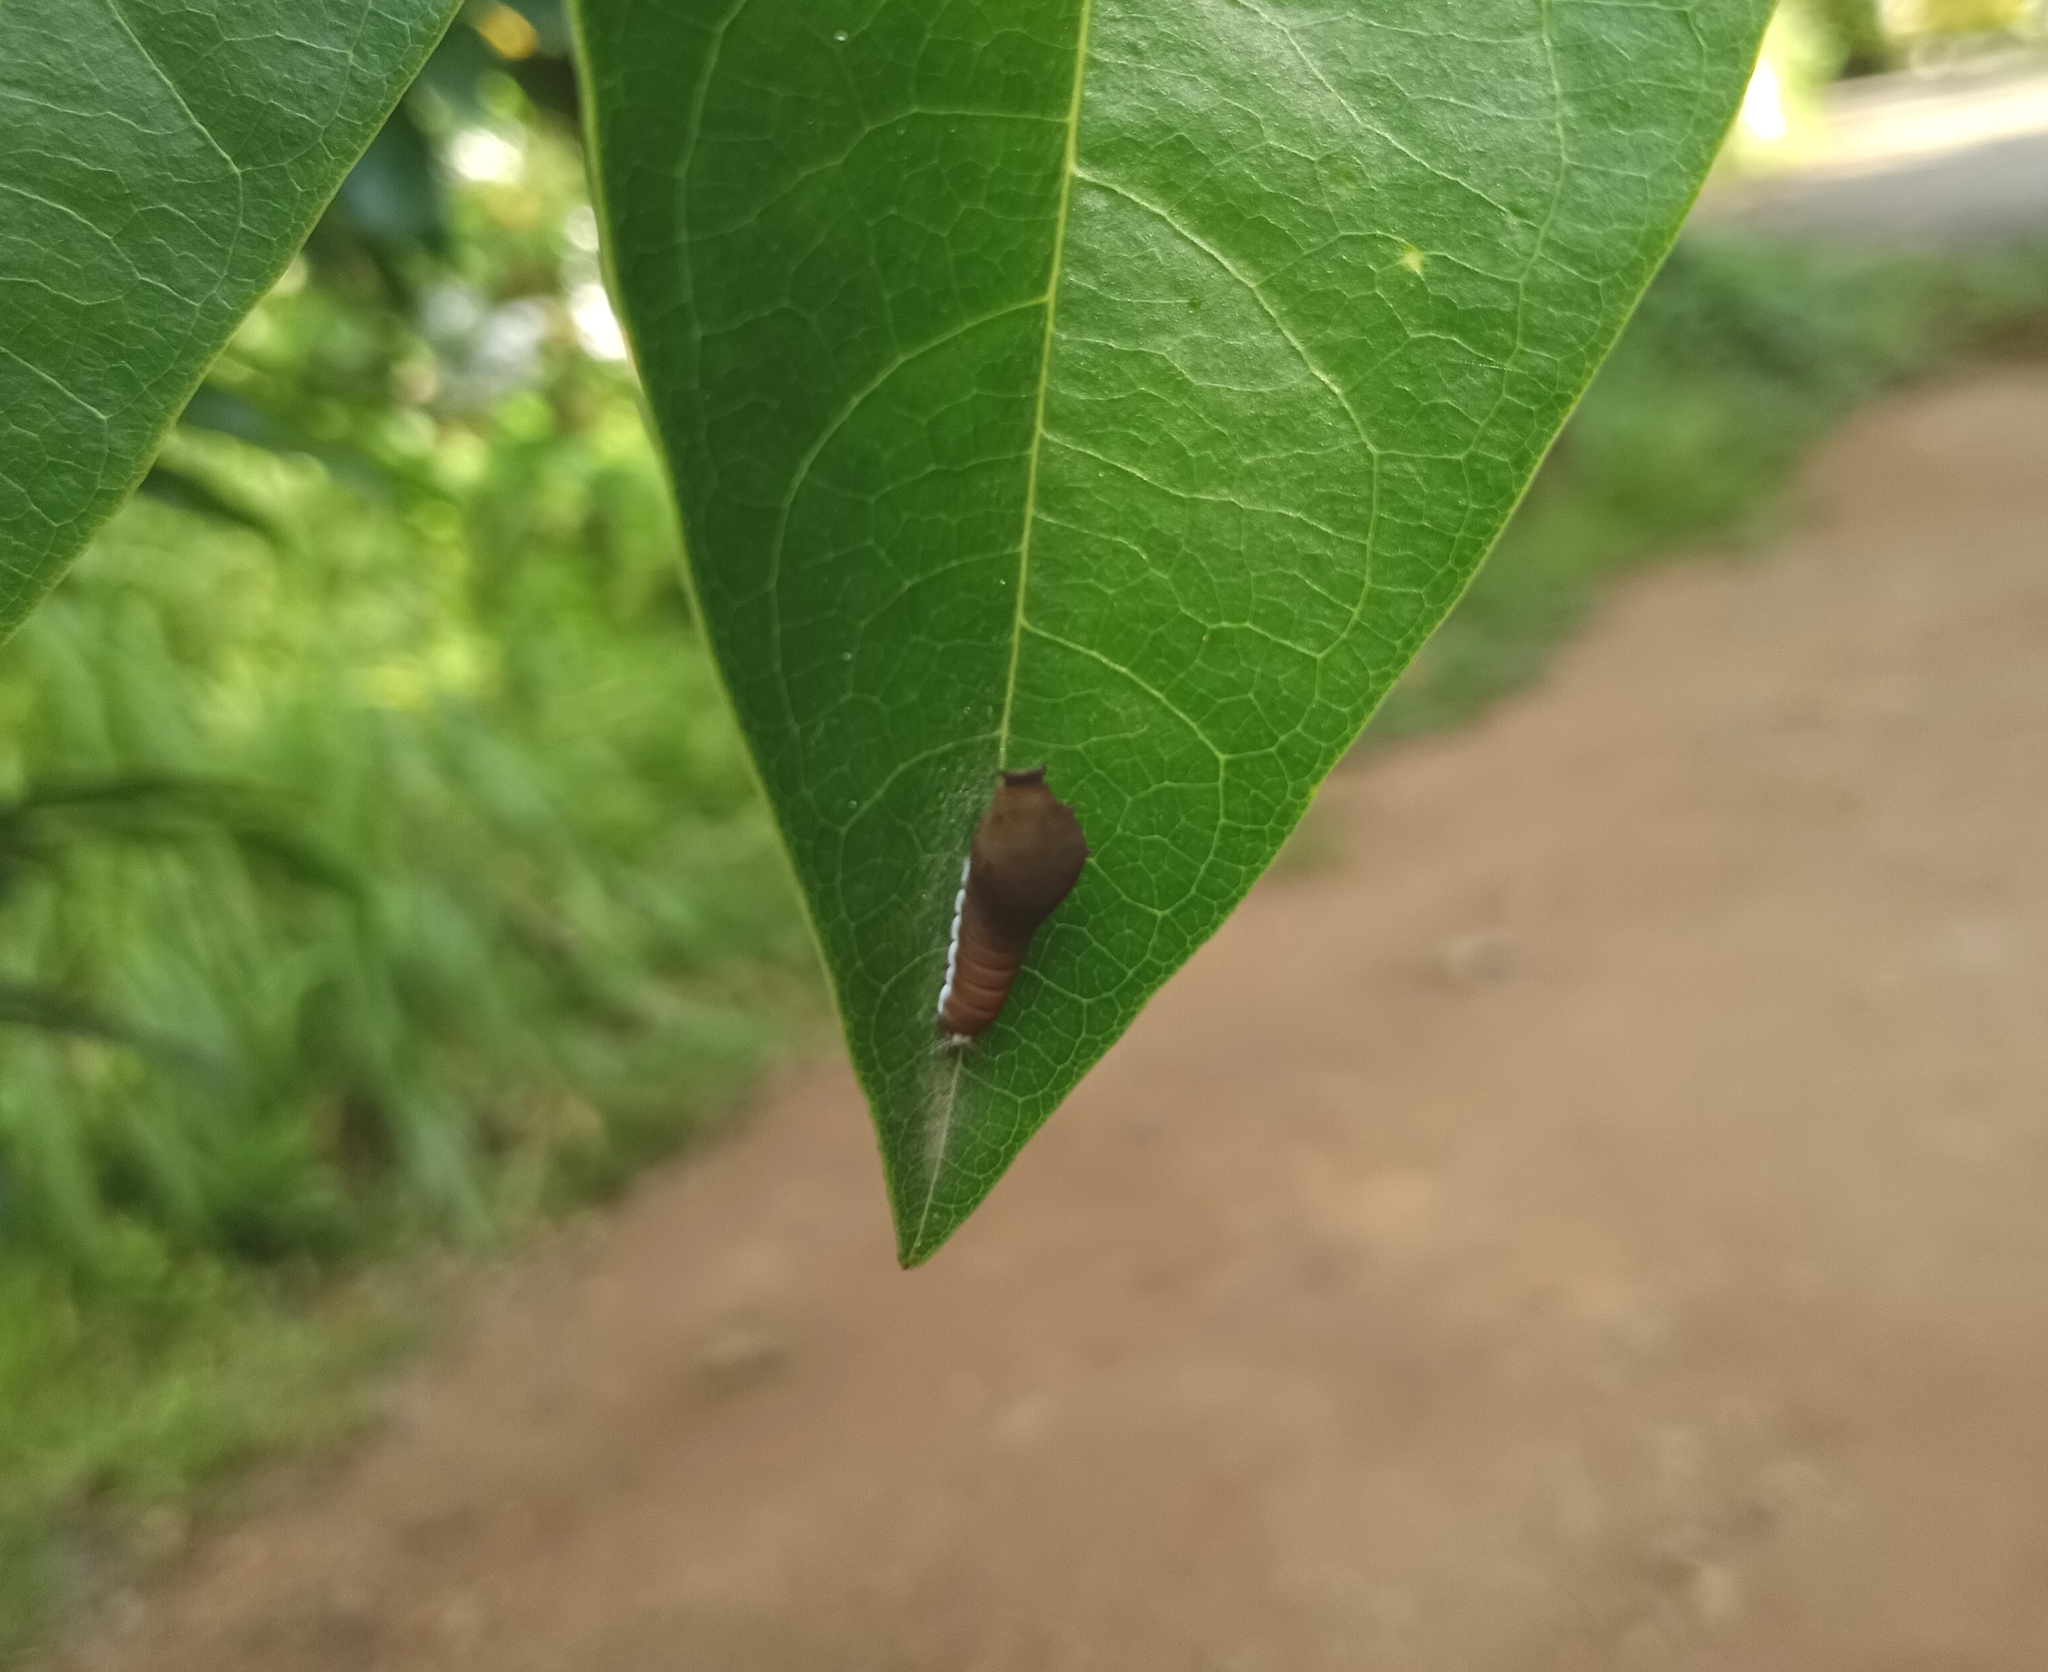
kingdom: Animalia
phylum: Arthropoda
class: Insecta
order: Lepidoptera
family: Papilionidae
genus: Graphium
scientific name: Graphium doson
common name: Common jay
